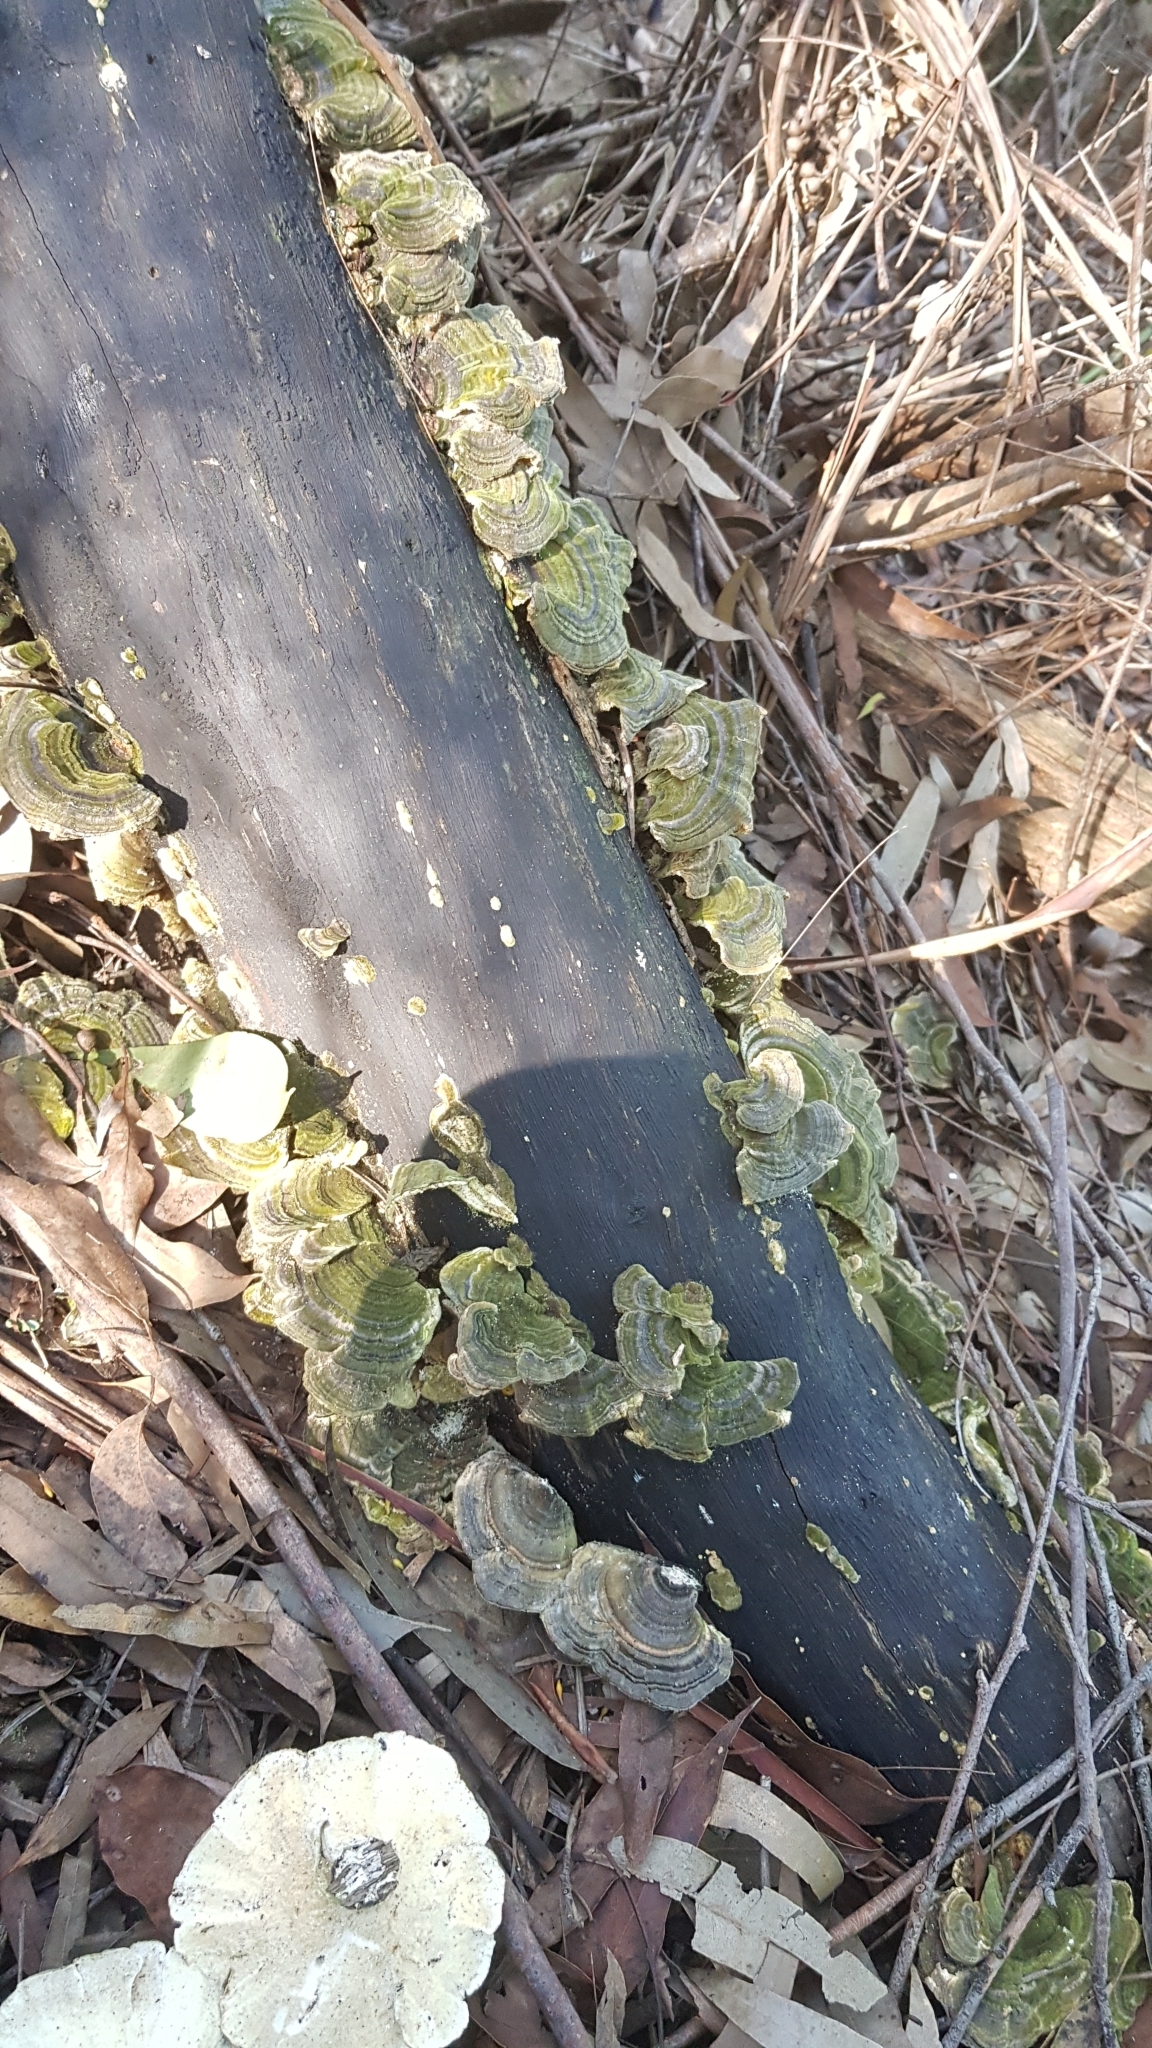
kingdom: Fungi
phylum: Basidiomycota
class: Agaricomycetes
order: Polyporales
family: Polyporaceae
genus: Trametes
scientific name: Trametes versicolor
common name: Turkeytail
